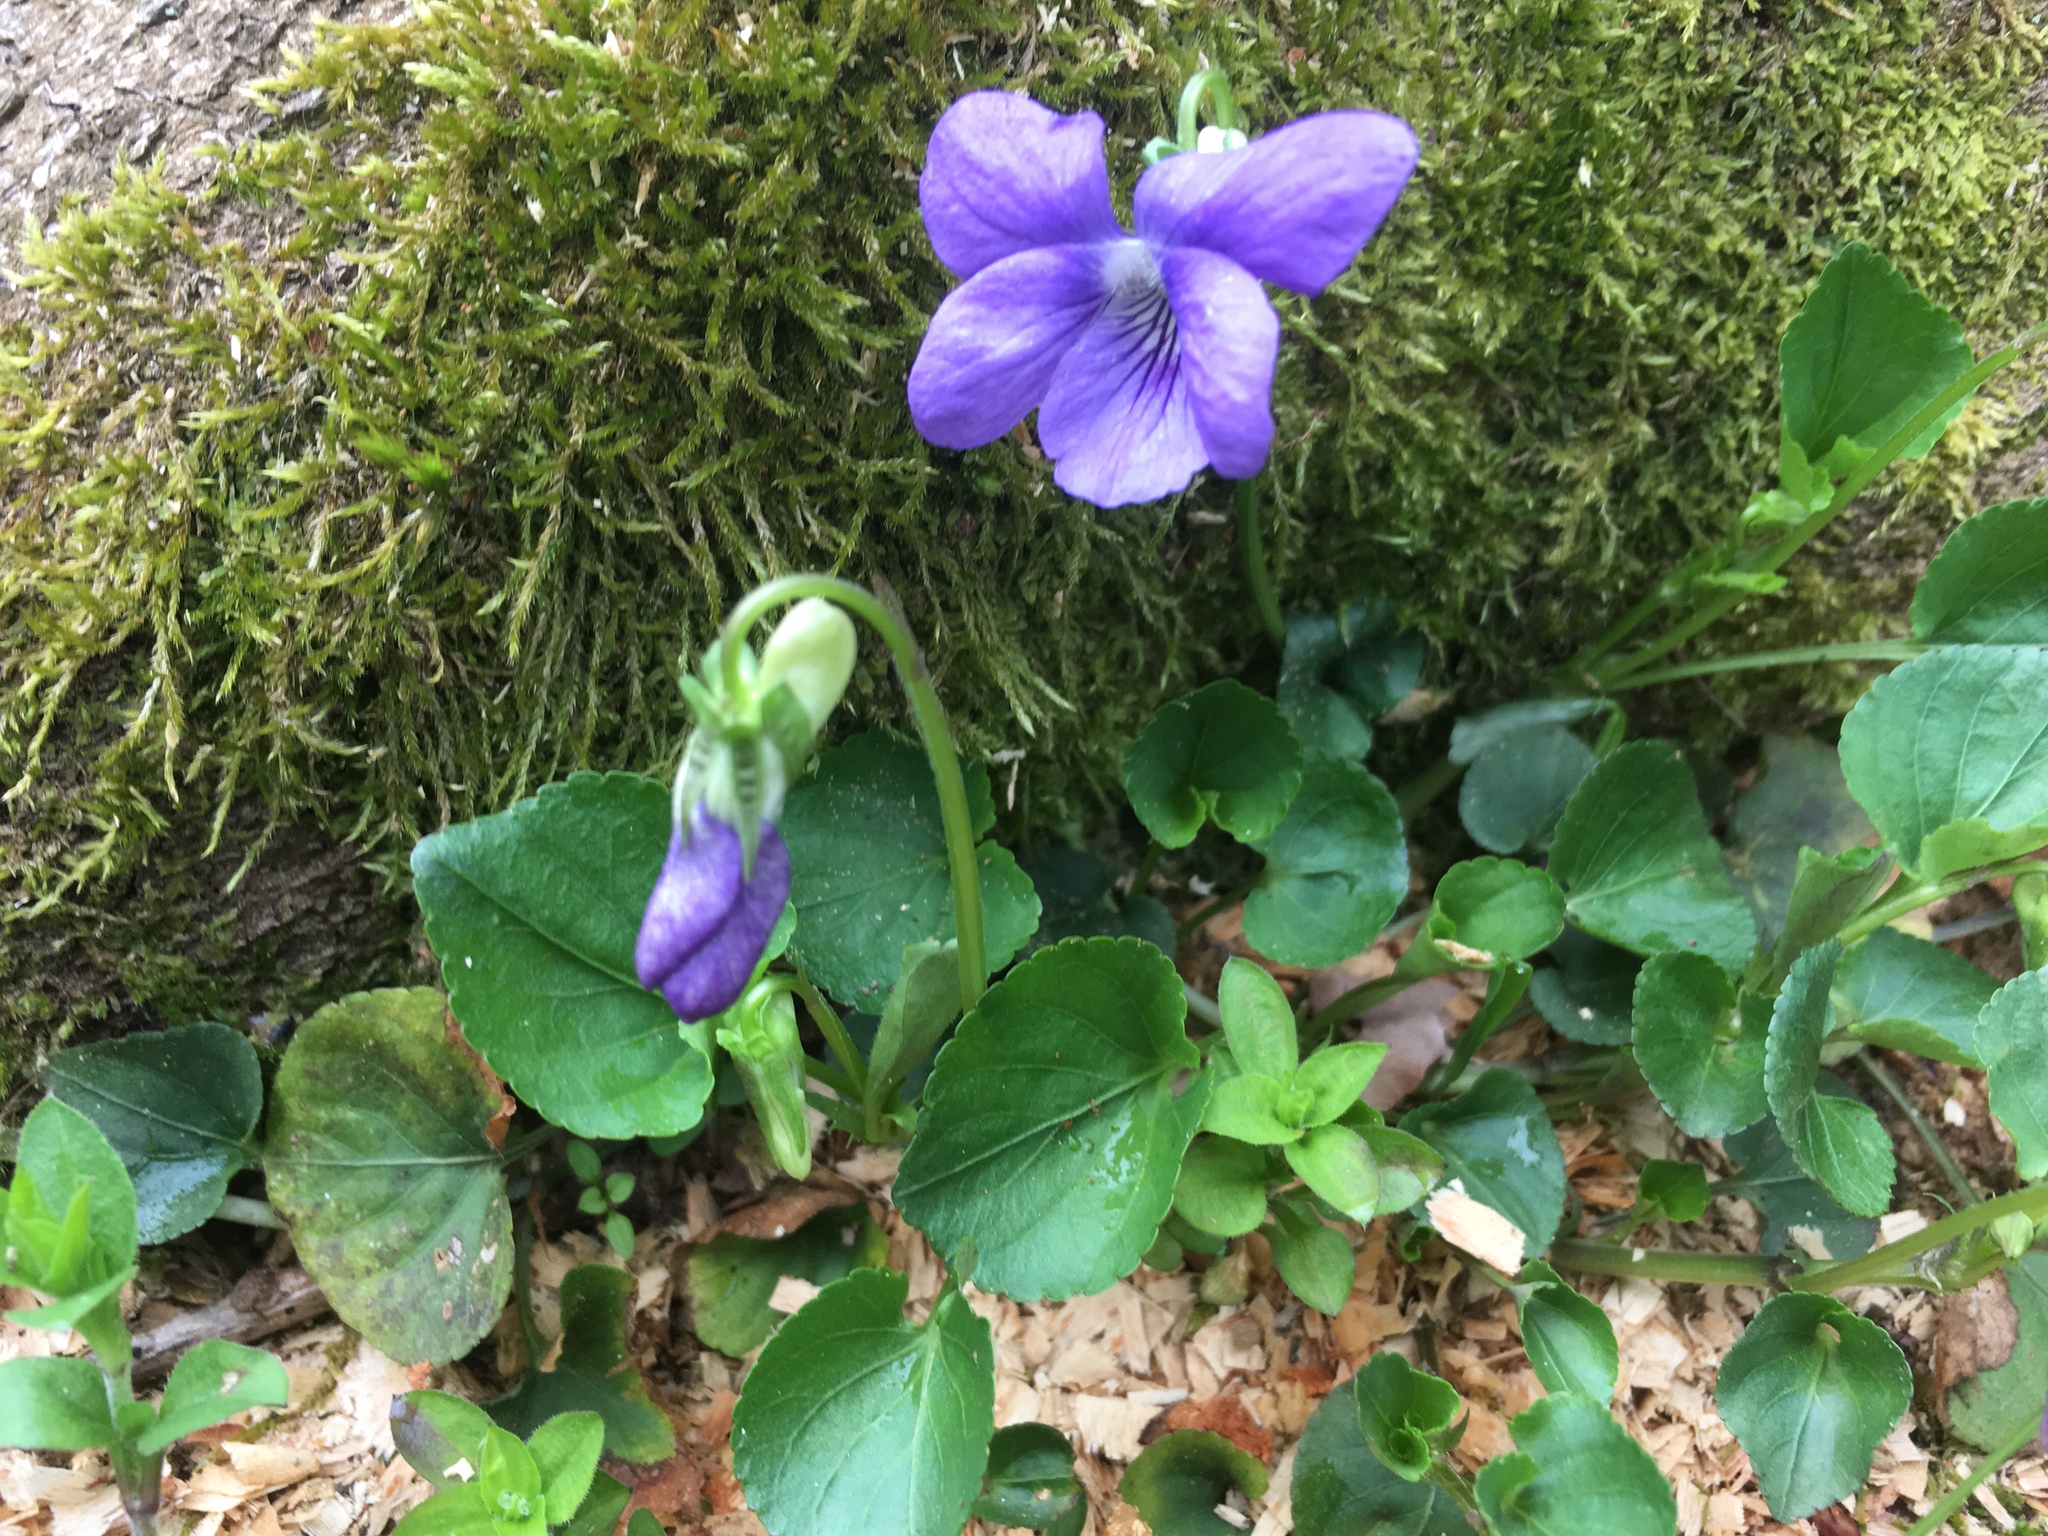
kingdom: Plantae
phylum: Tracheophyta
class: Magnoliopsida
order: Malpighiales
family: Violaceae
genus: Viola
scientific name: Viola riviniana
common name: Common dog-violet
